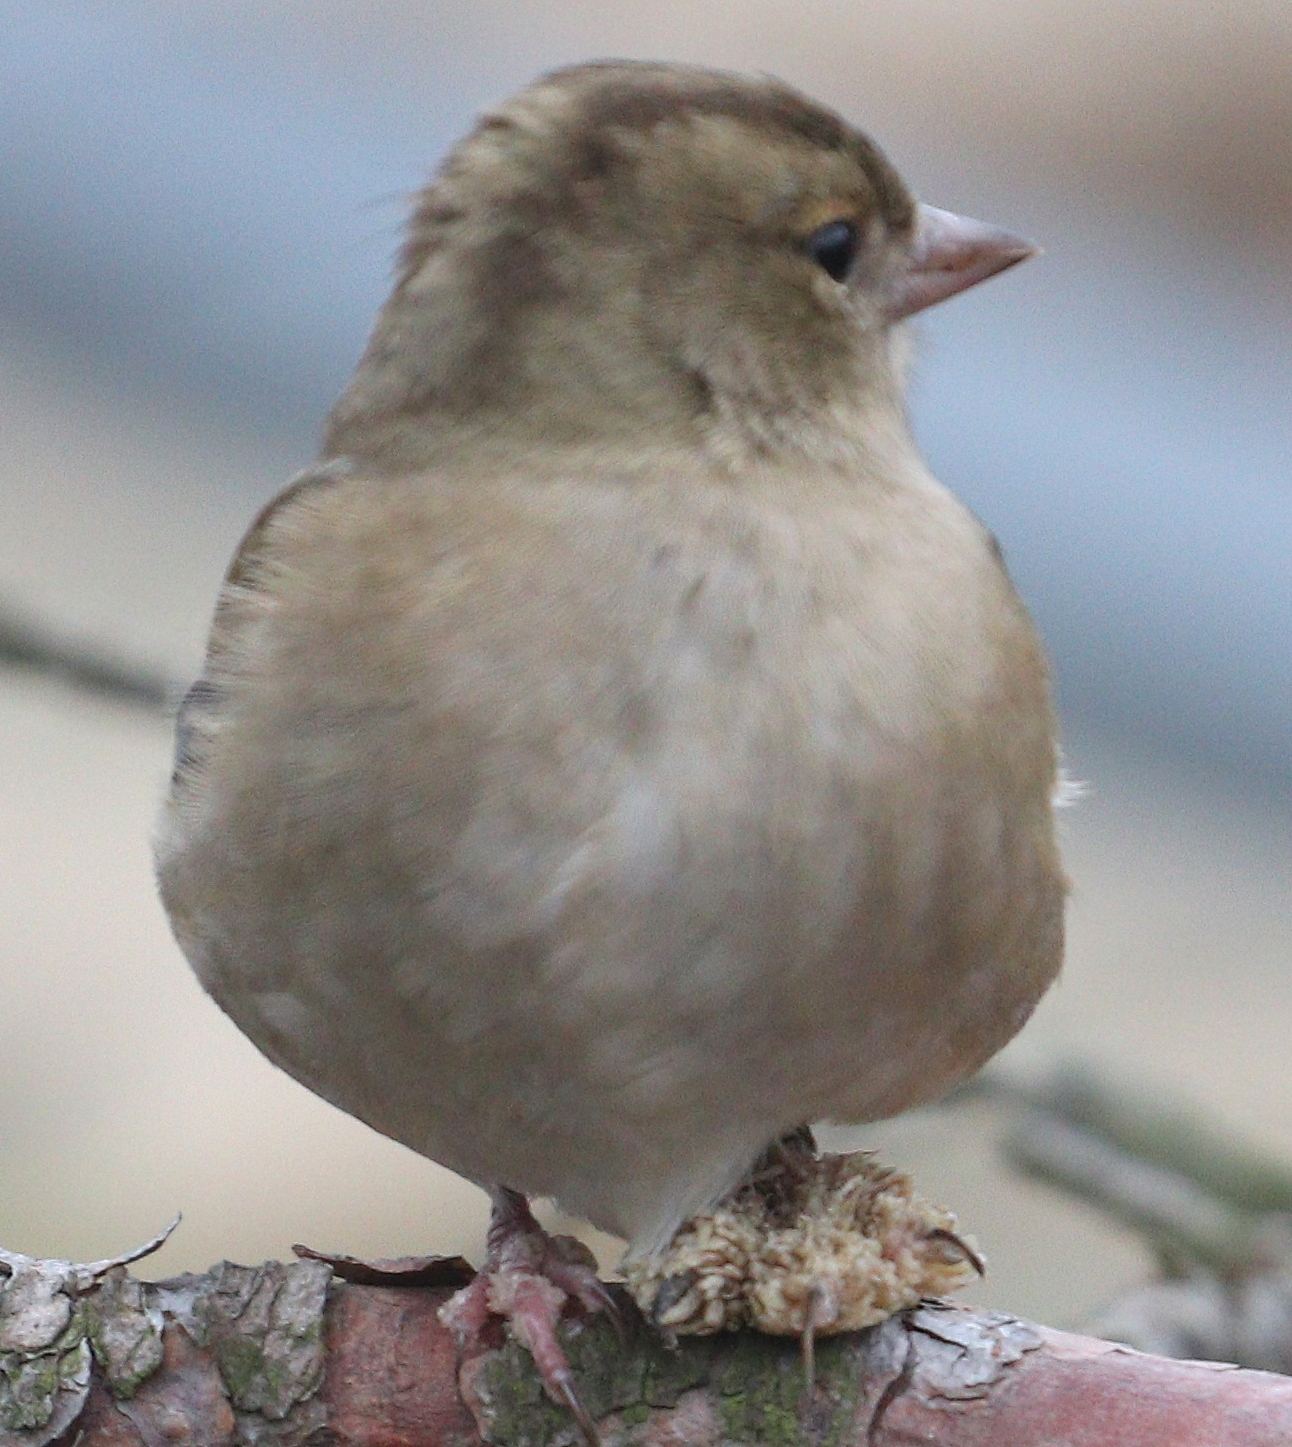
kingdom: Viruses
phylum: Cossaviricota
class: Papovaviricetes
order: Zurhausenvirales
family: Papillomaviridae
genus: Etapapillomavirus
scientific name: Etapapillomavirus
